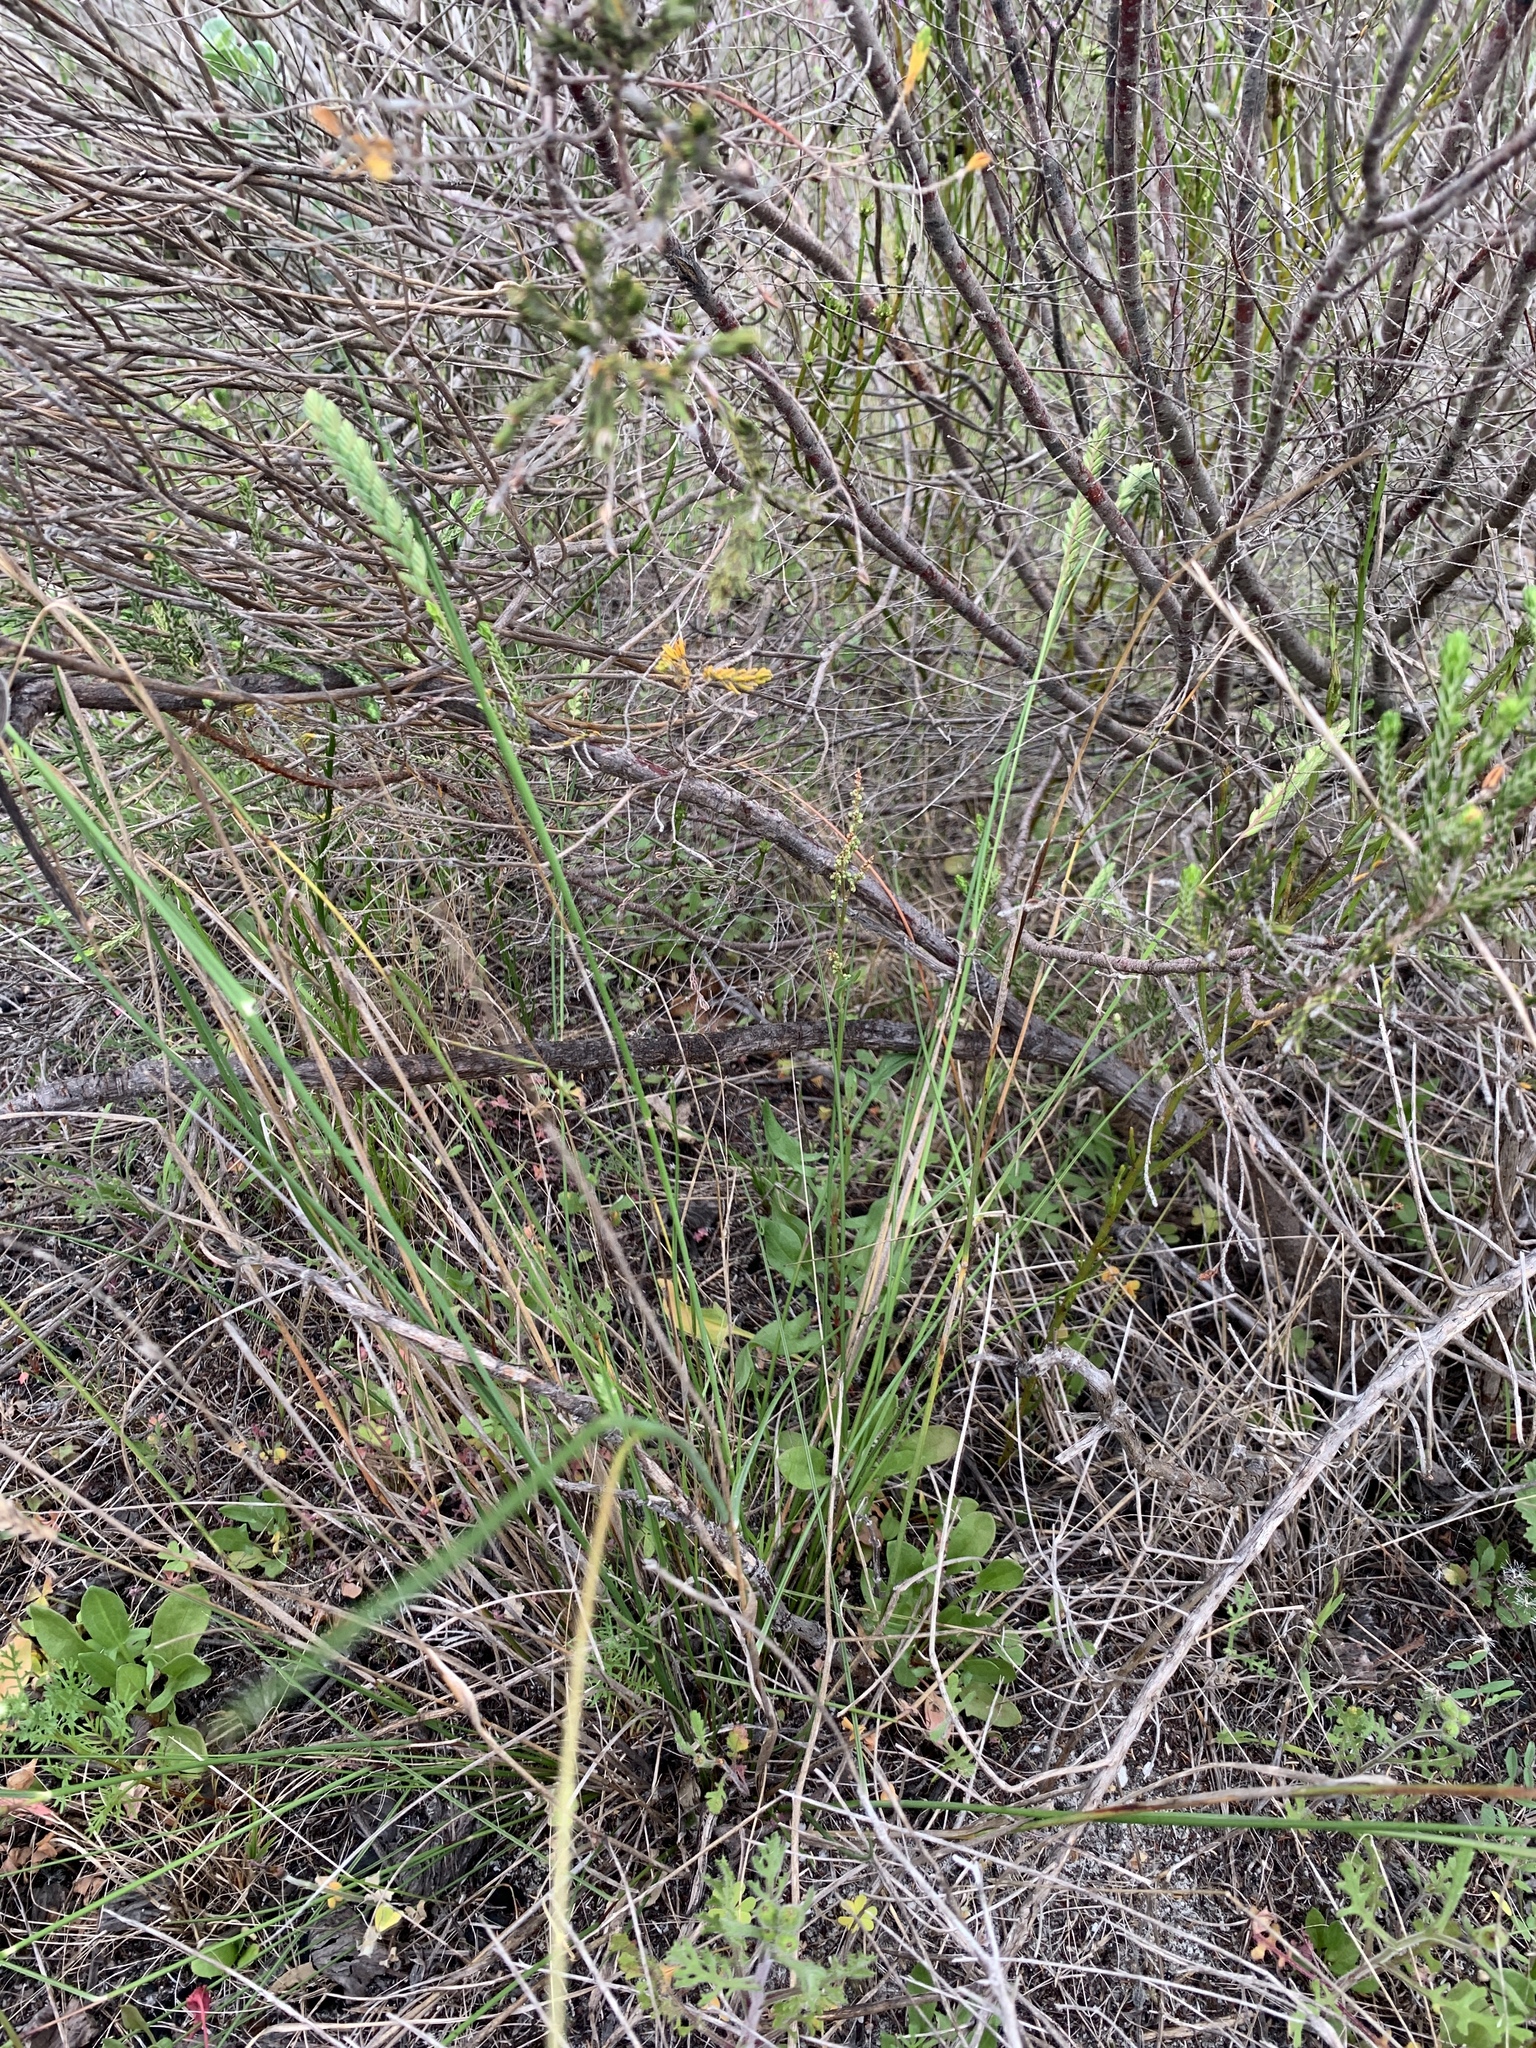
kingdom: Plantae
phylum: Tracheophyta
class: Liliopsida
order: Poales
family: Poaceae
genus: Tribolium
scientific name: Tribolium uniolae
